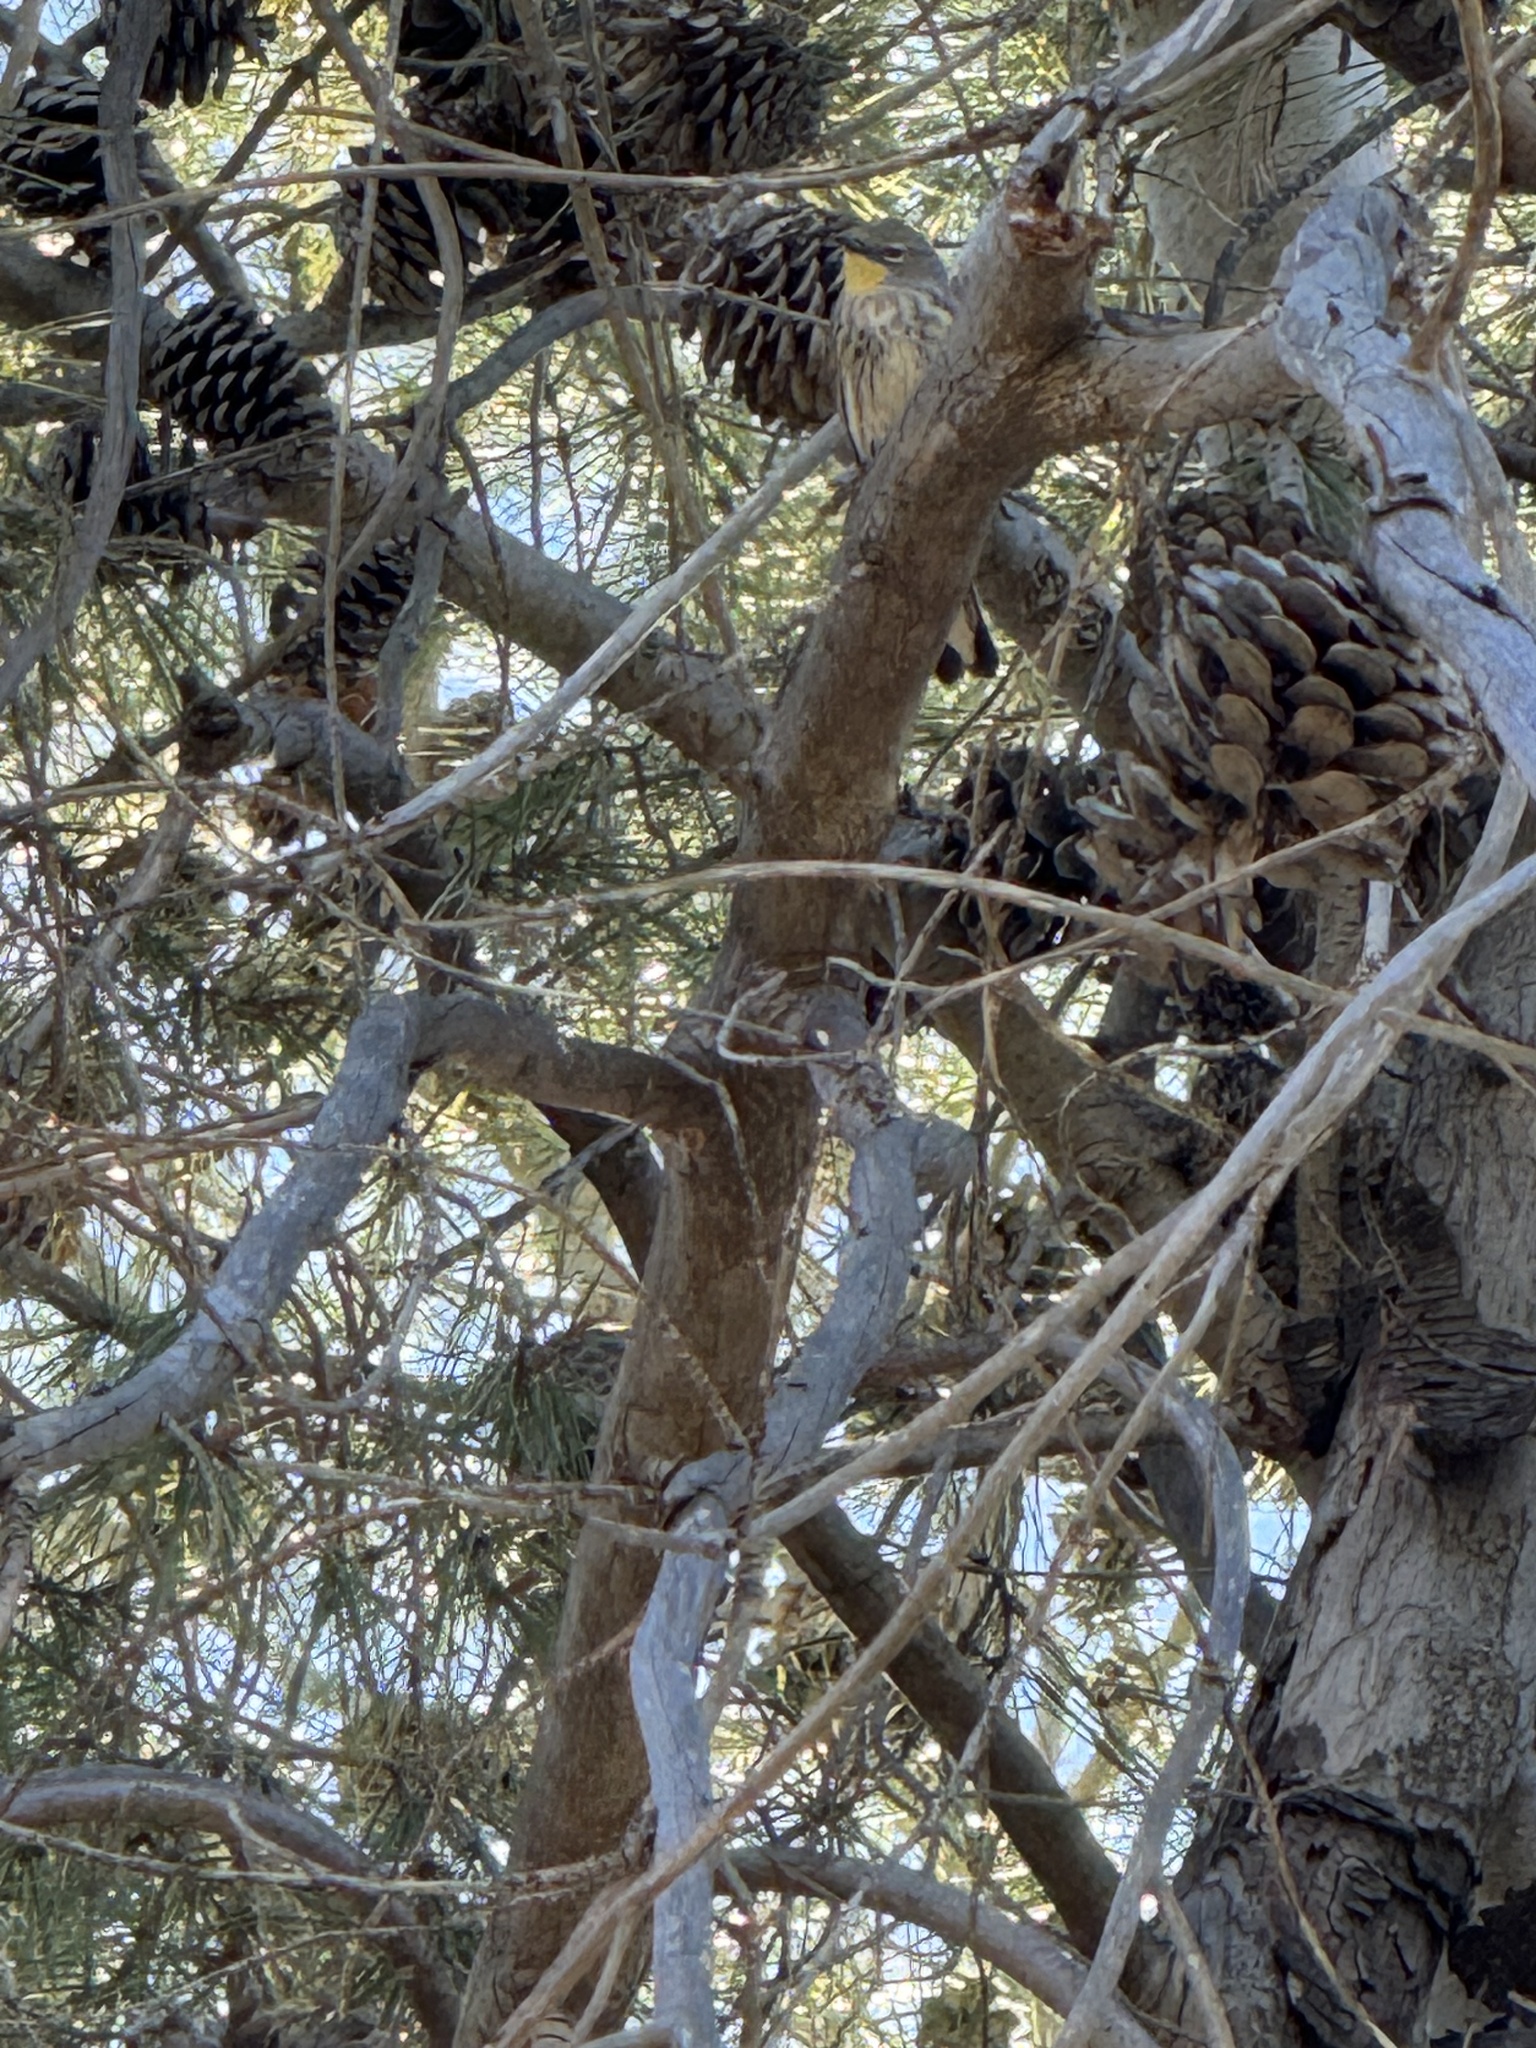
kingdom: Animalia
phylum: Chordata
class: Aves
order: Passeriformes
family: Parulidae
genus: Setophaga
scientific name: Setophaga coronata
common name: Myrtle warbler
